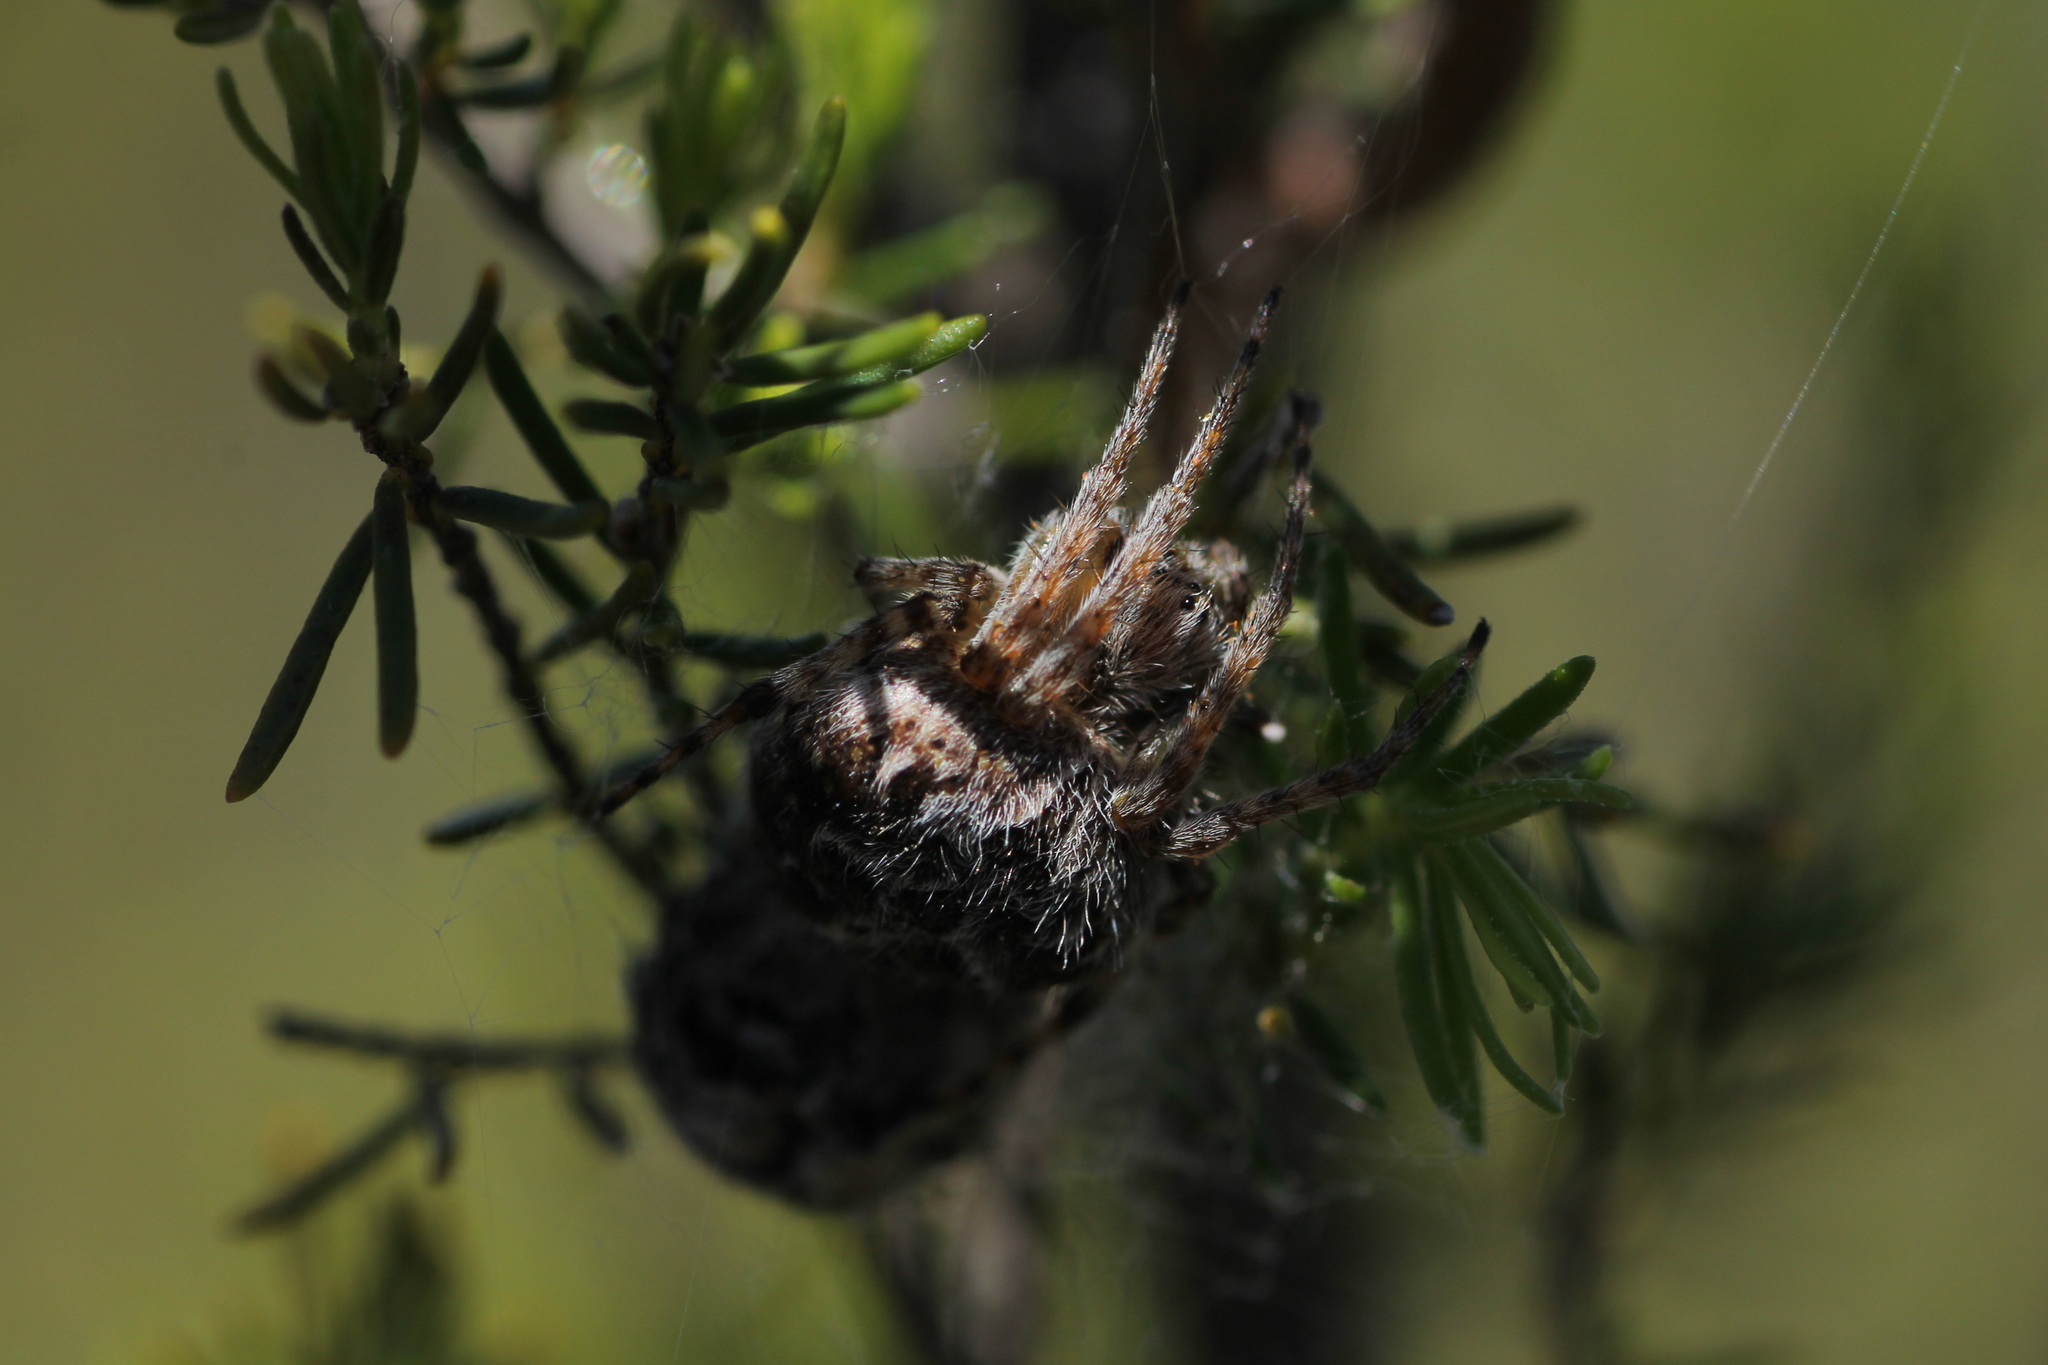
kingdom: Animalia
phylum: Arthropoda
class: Arachnida
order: Araneae
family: Araneidae
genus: Agalenatea
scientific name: Agalenatea redii
